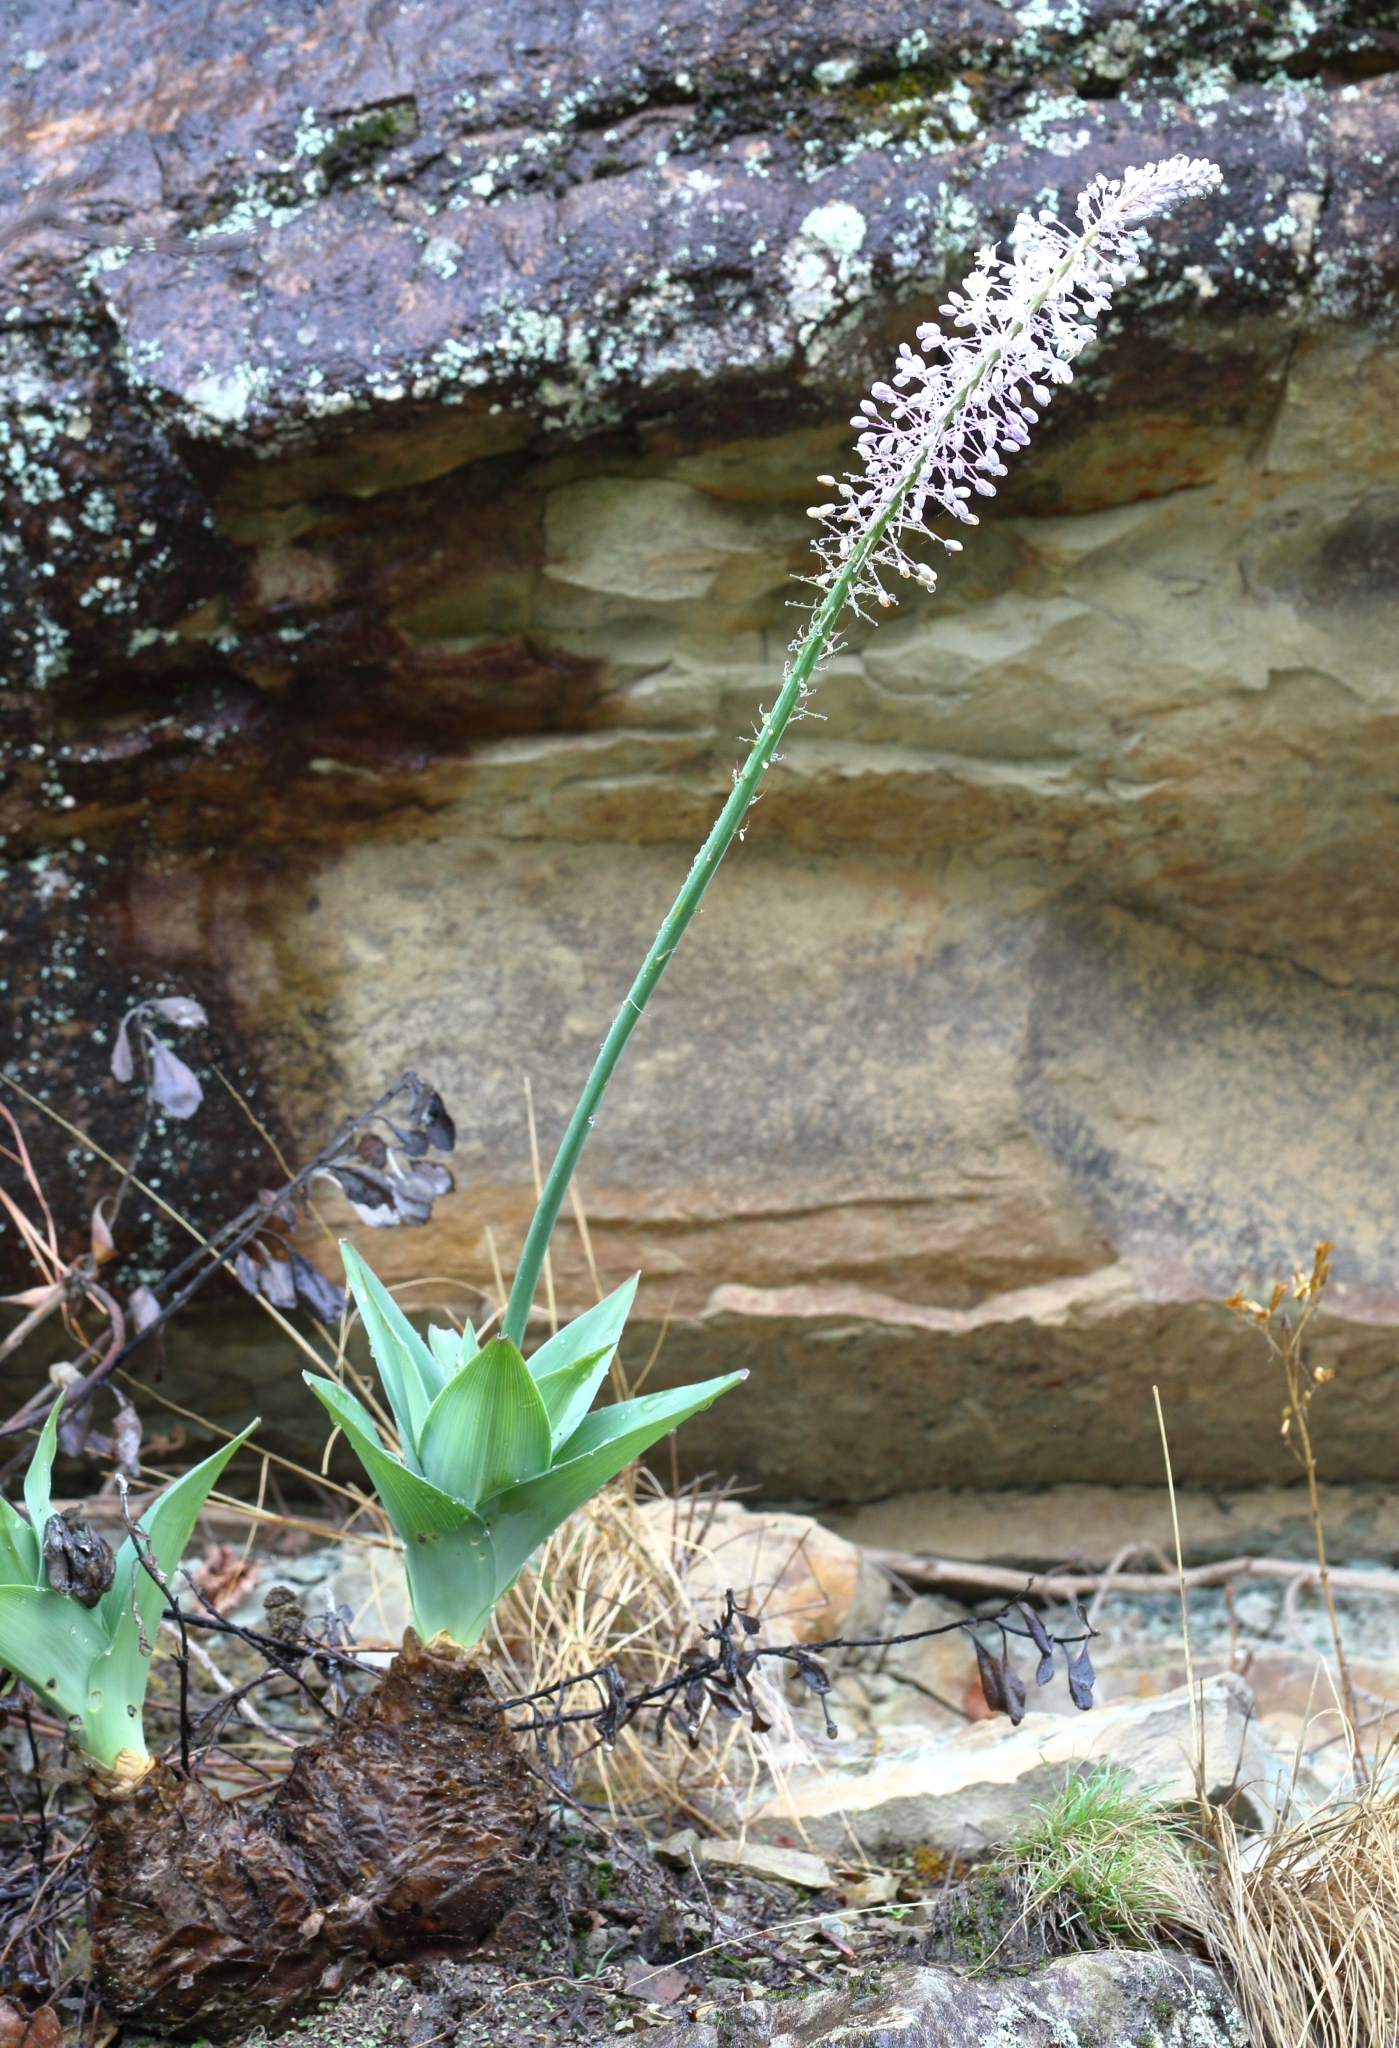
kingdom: Plantae
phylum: Tracheophyta
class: Liliopsida
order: Asparagales
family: Asparagaceae
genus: Merwilla
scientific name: Merwilla plumbea
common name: Blue-squill
